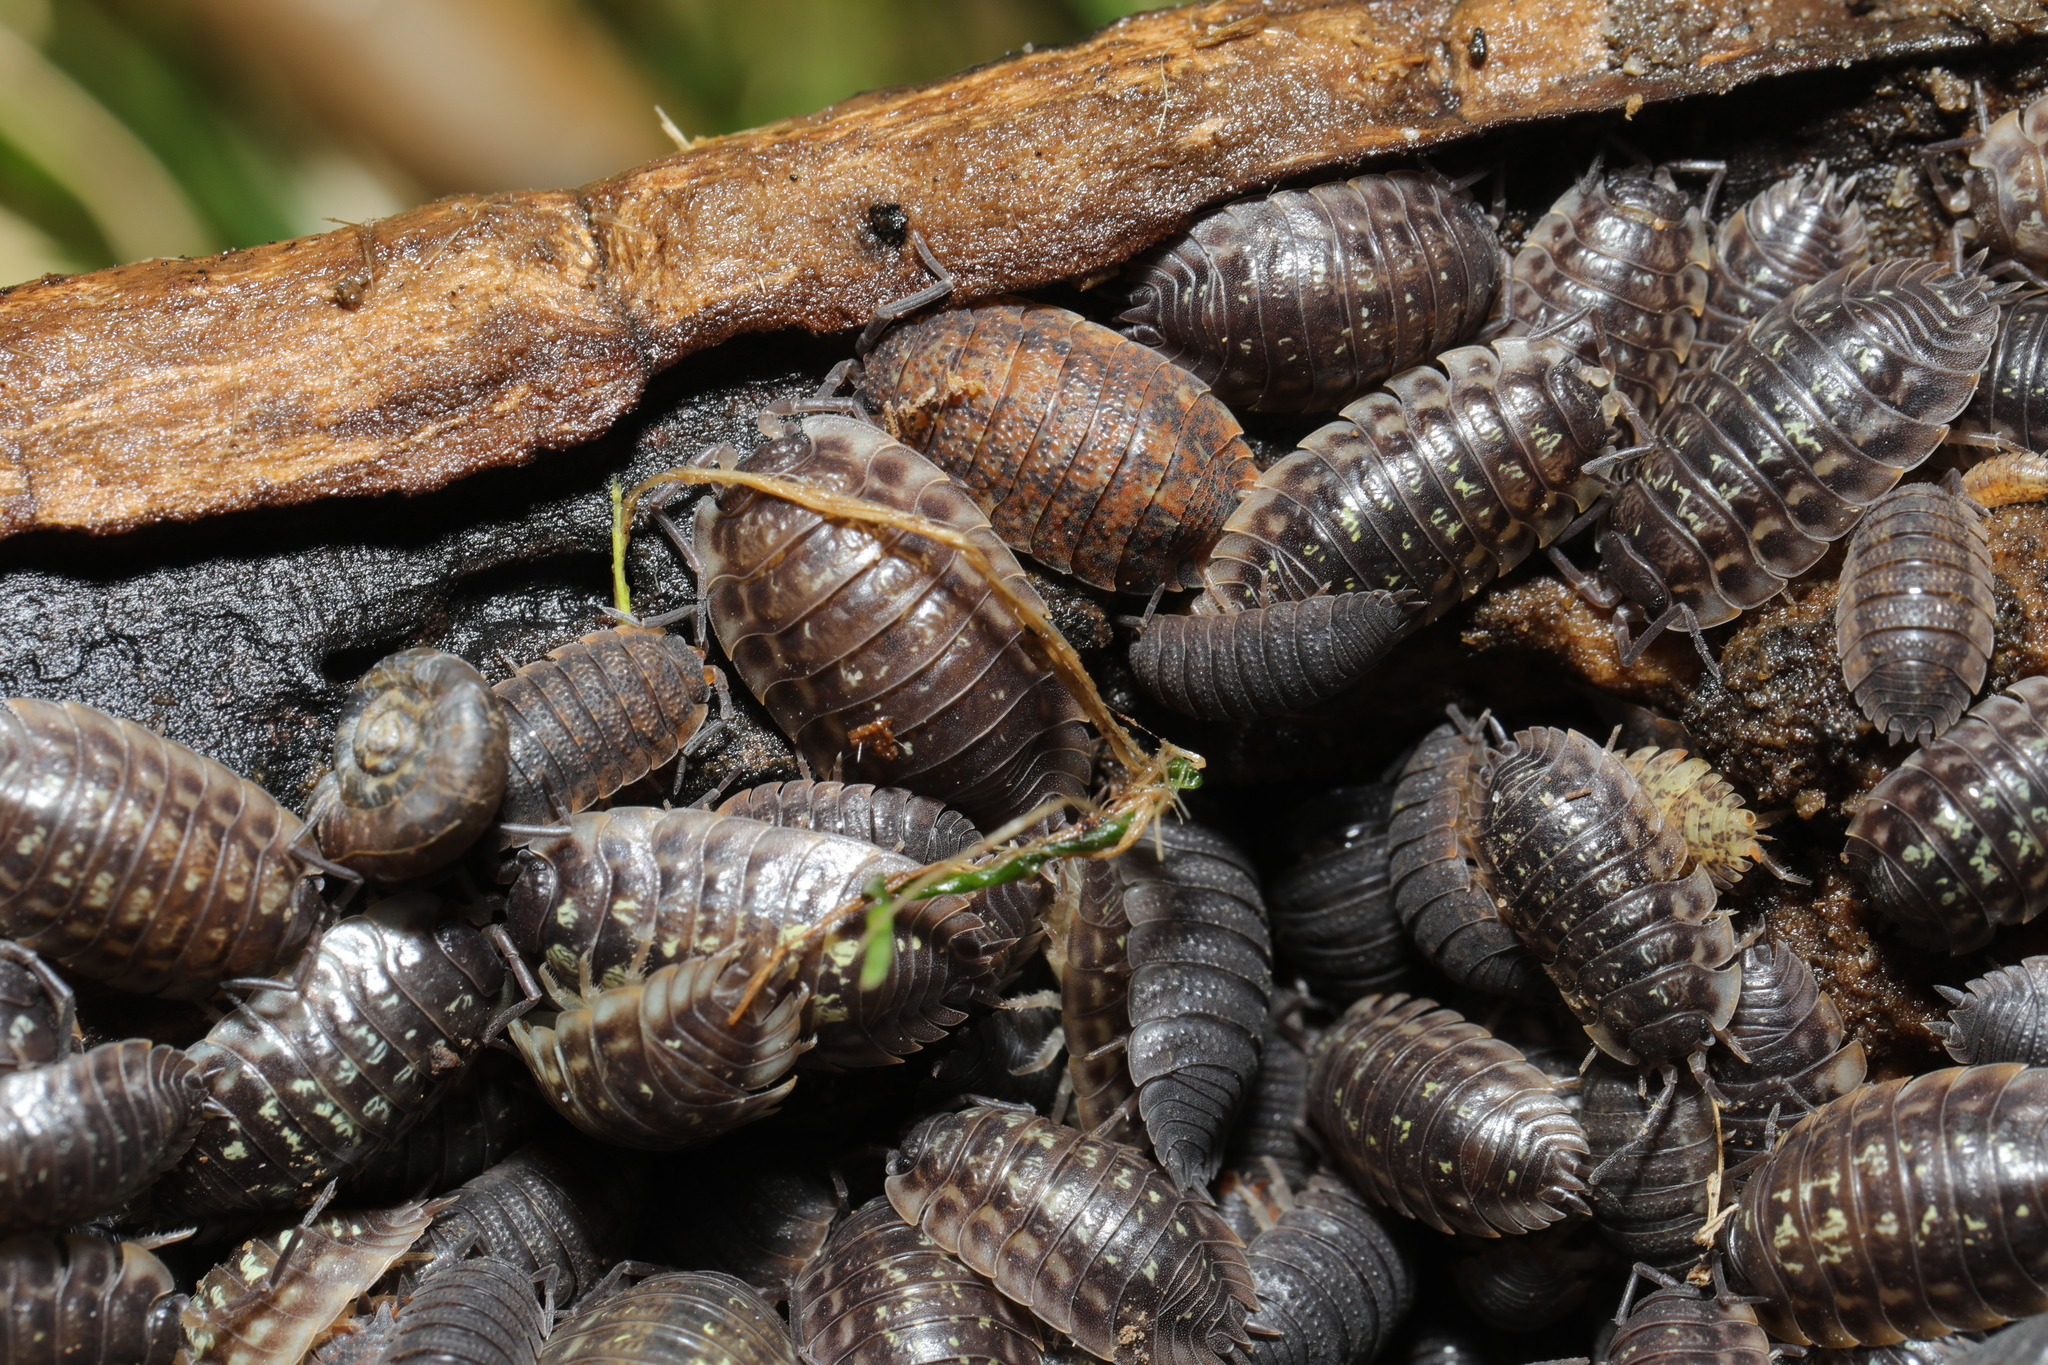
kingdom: Animalia
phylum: Arthropoda
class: Malacostraca
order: Isopoda
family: Oniscidae
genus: Oniscus
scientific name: Oniscus asellus
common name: Common shiny woodlouse
